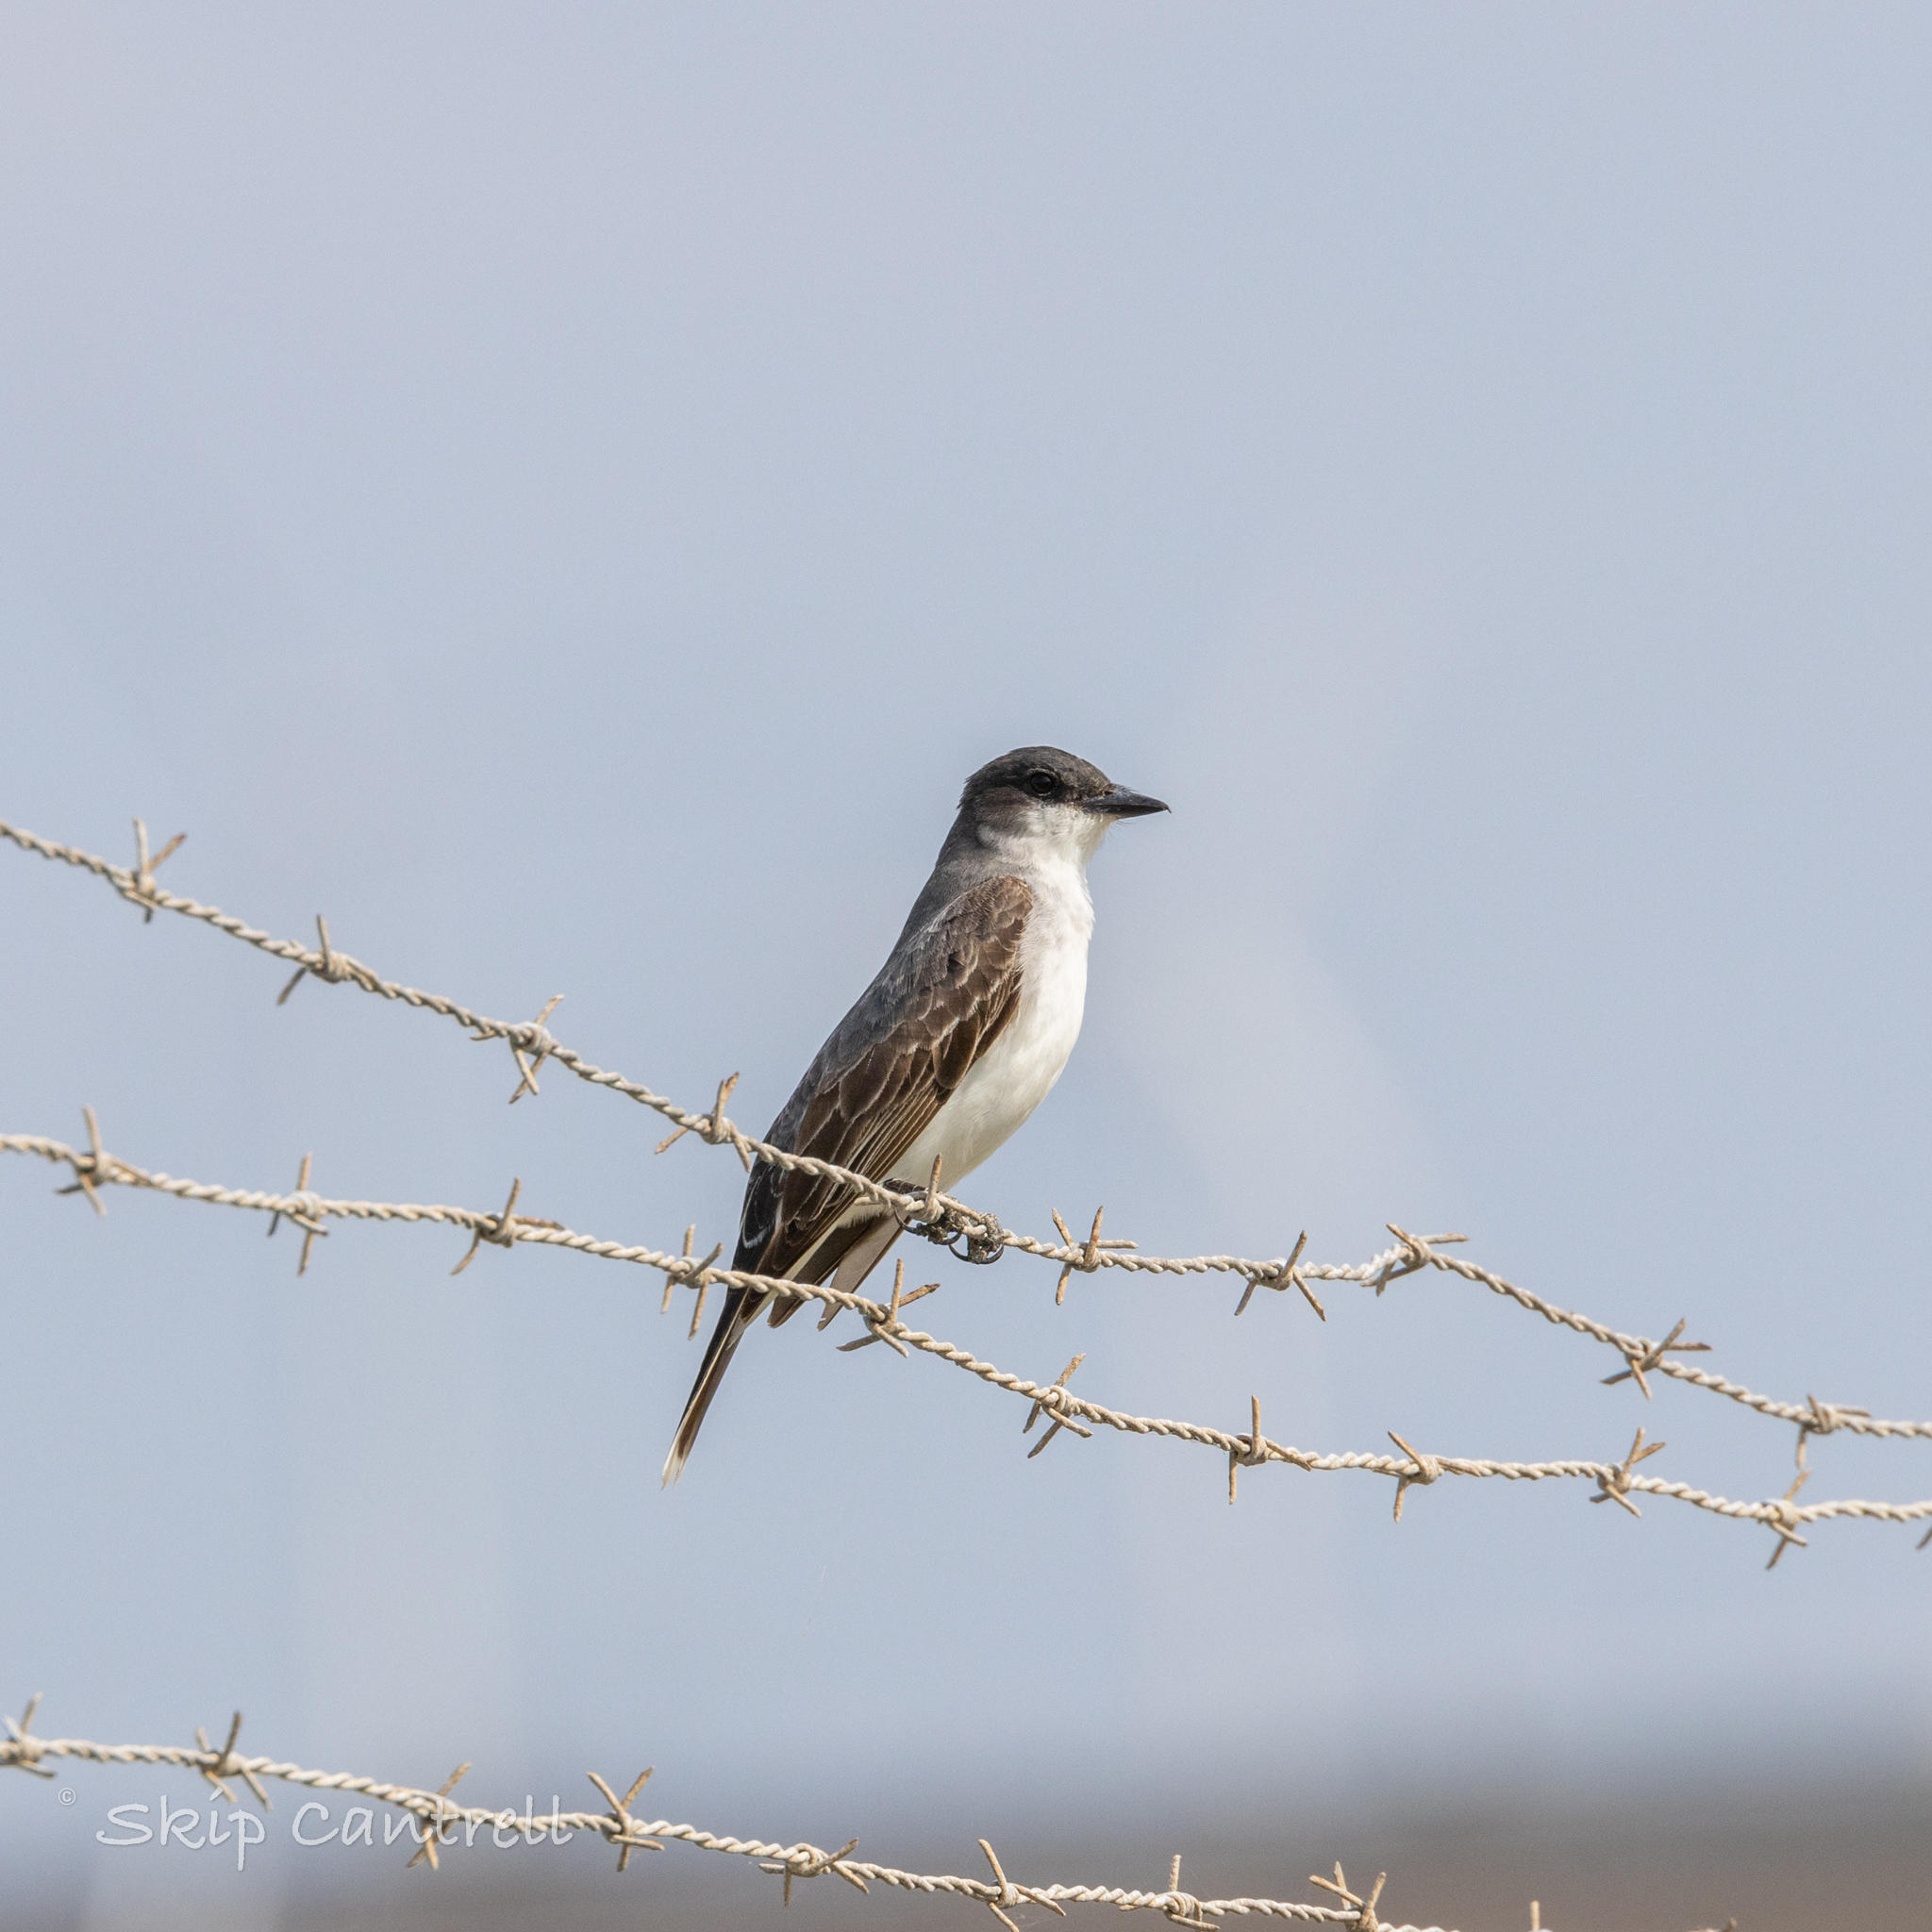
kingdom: Animalia
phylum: Chordata
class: Aves
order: Passeriformes
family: Tyrannidae
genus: Tyrannus
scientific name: Tyrannus tyrannus
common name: Eastern kingbird
